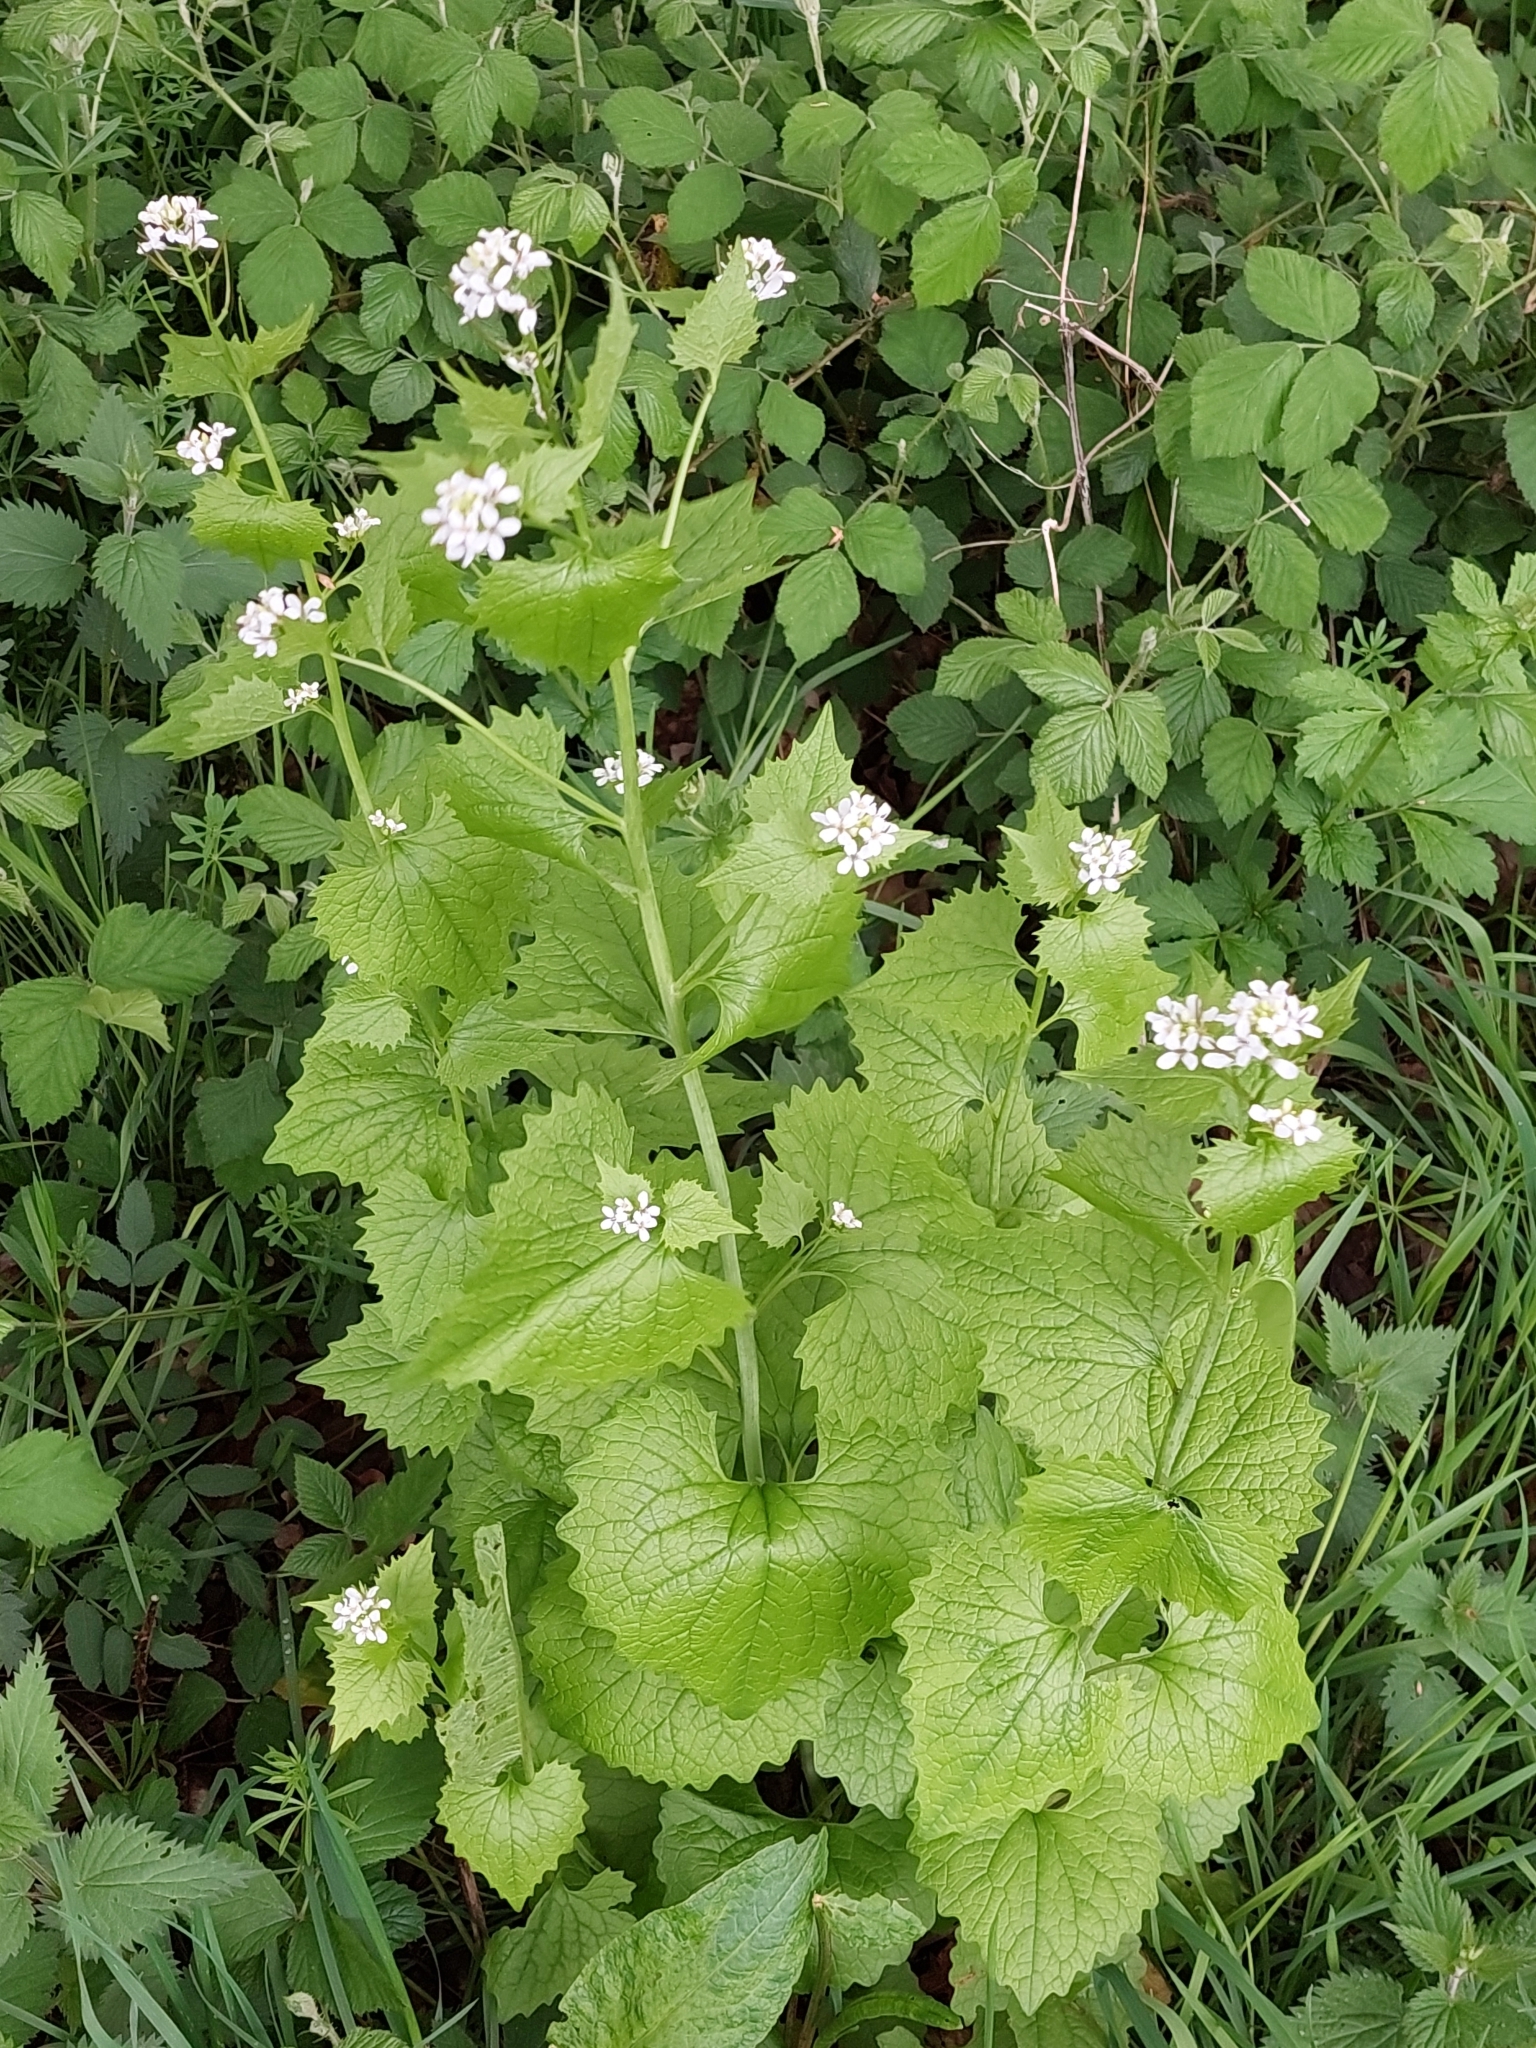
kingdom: Plantae
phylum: Tracheophyta
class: Magnoliopsida
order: Brassicales
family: Brassicaceae
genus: Alliaria
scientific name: Alliaria petiolata
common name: Garlic mustard
